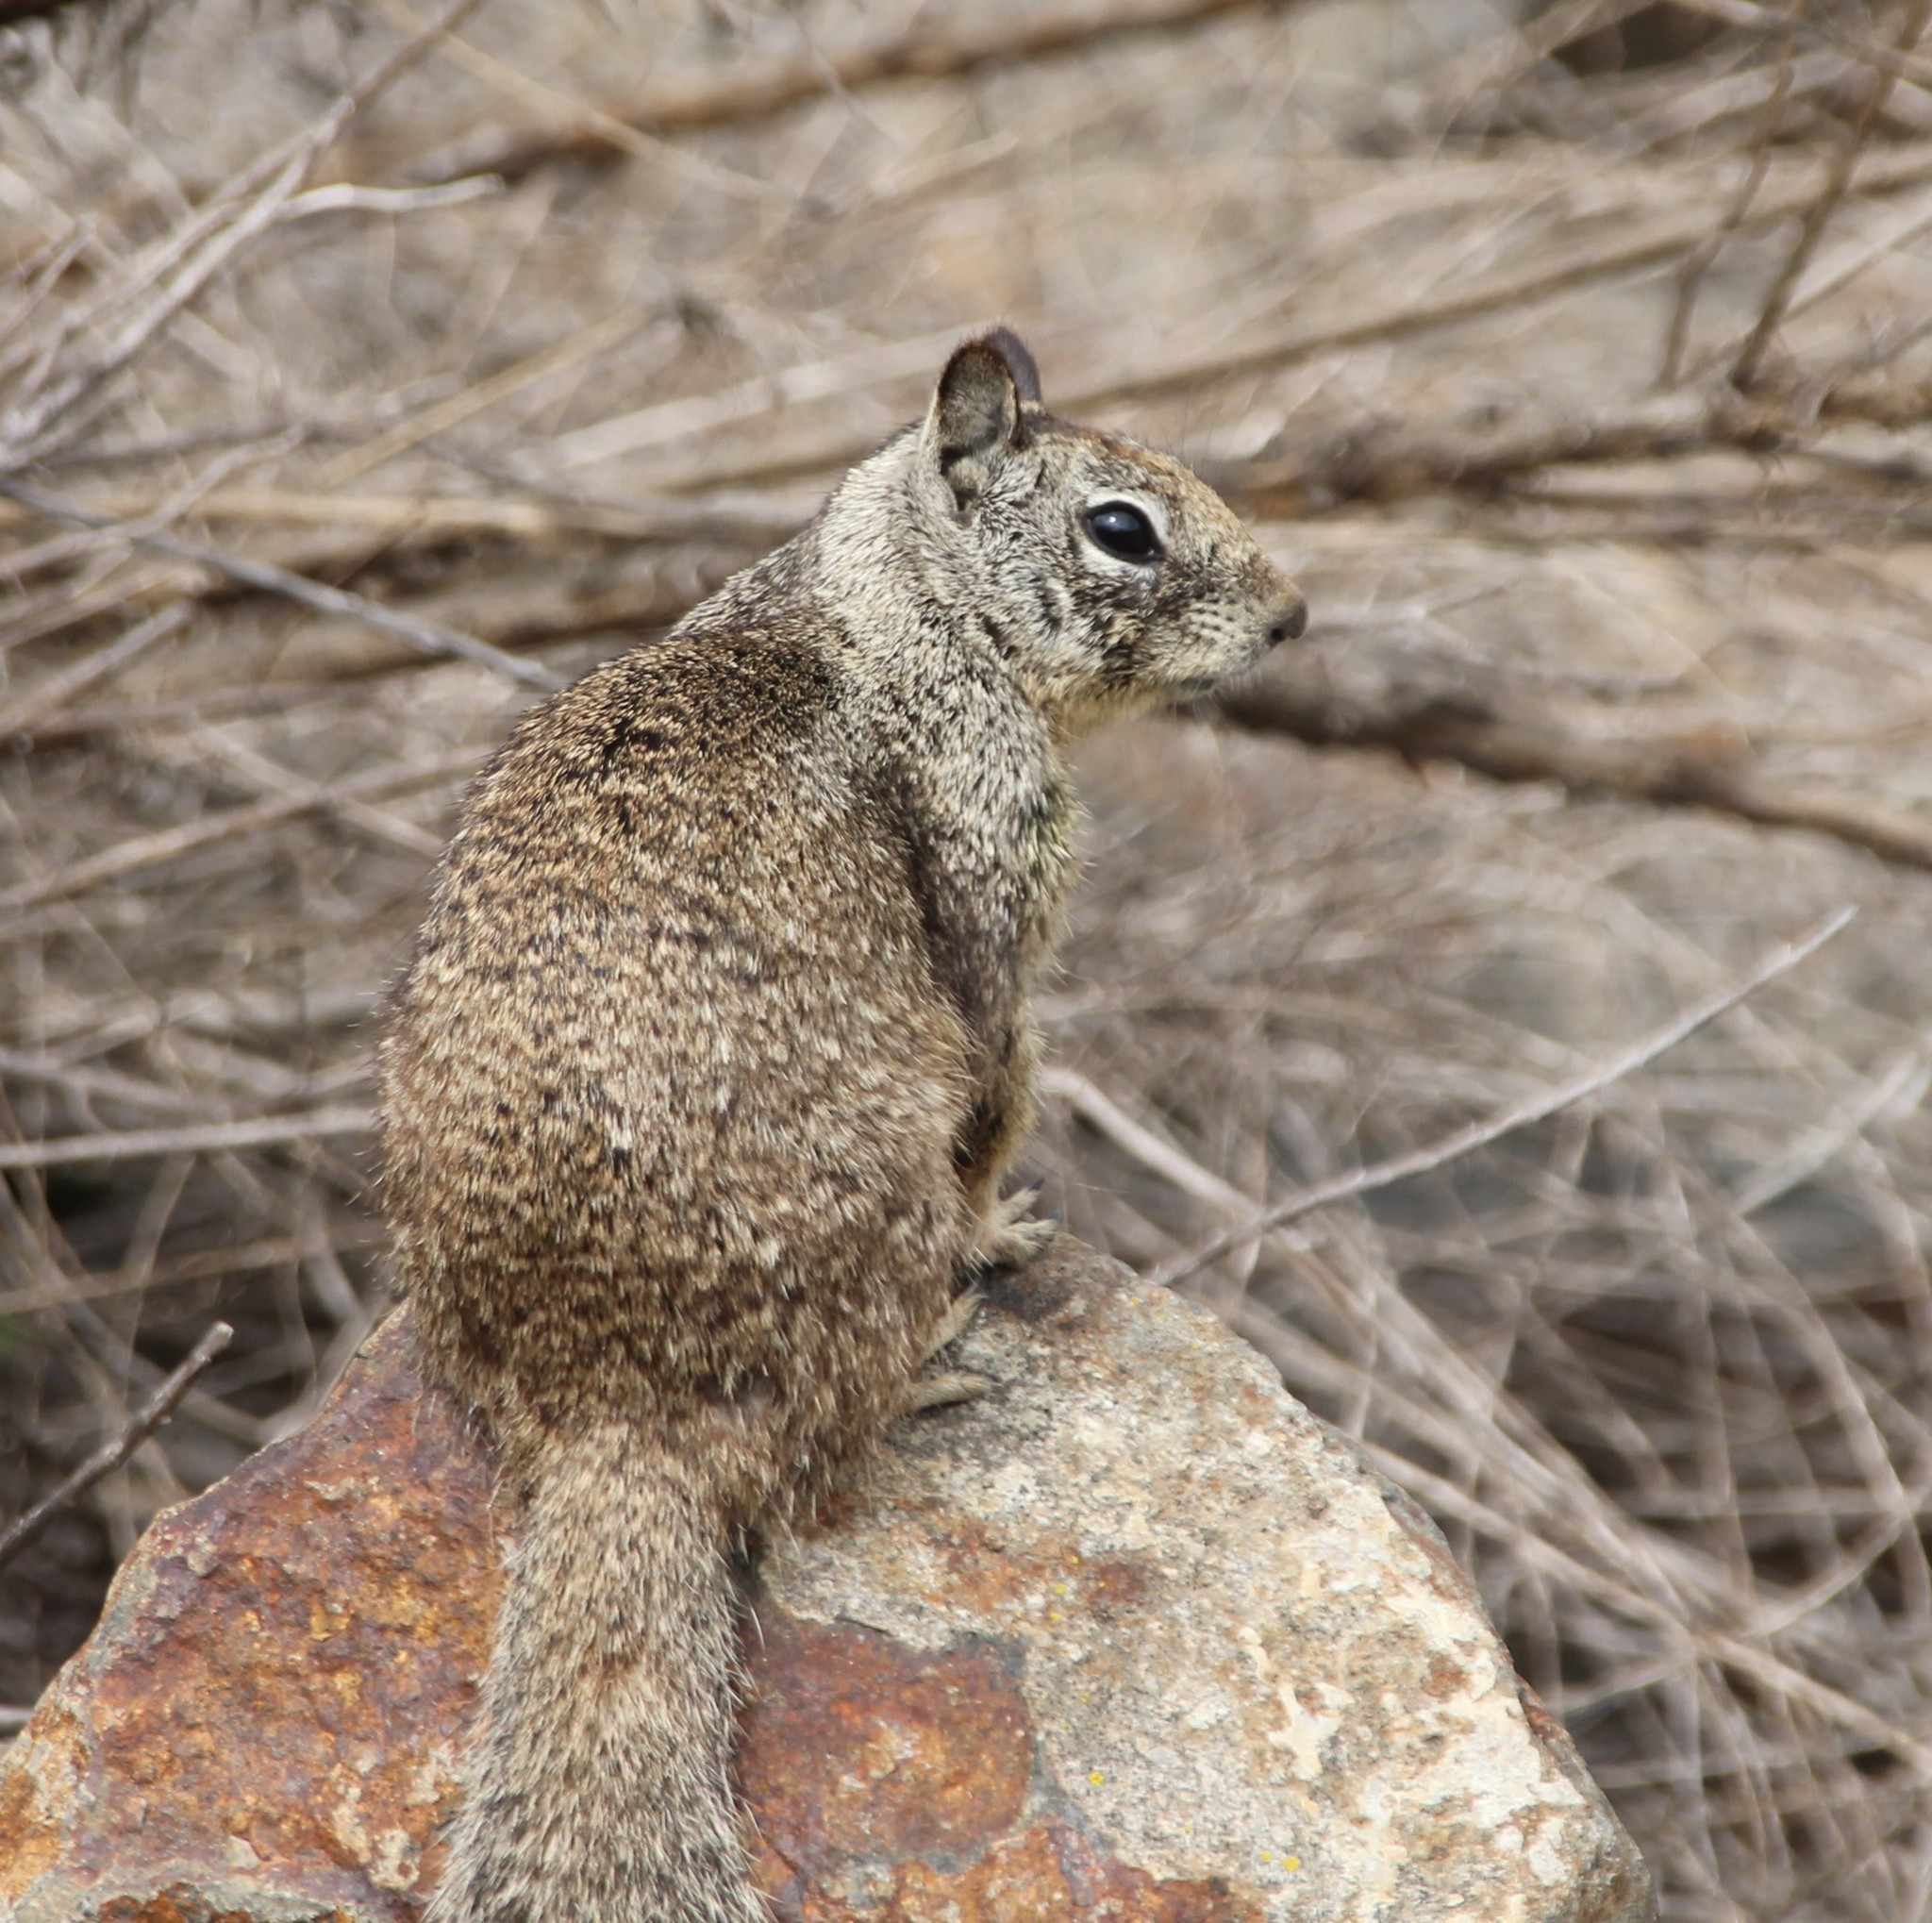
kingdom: Animalia
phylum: Chordata
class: Mammalia
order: Rodentia
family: Sciuridae
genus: Otospermophilus
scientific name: Otospermophilus beecheyi
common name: California ground squirrel
